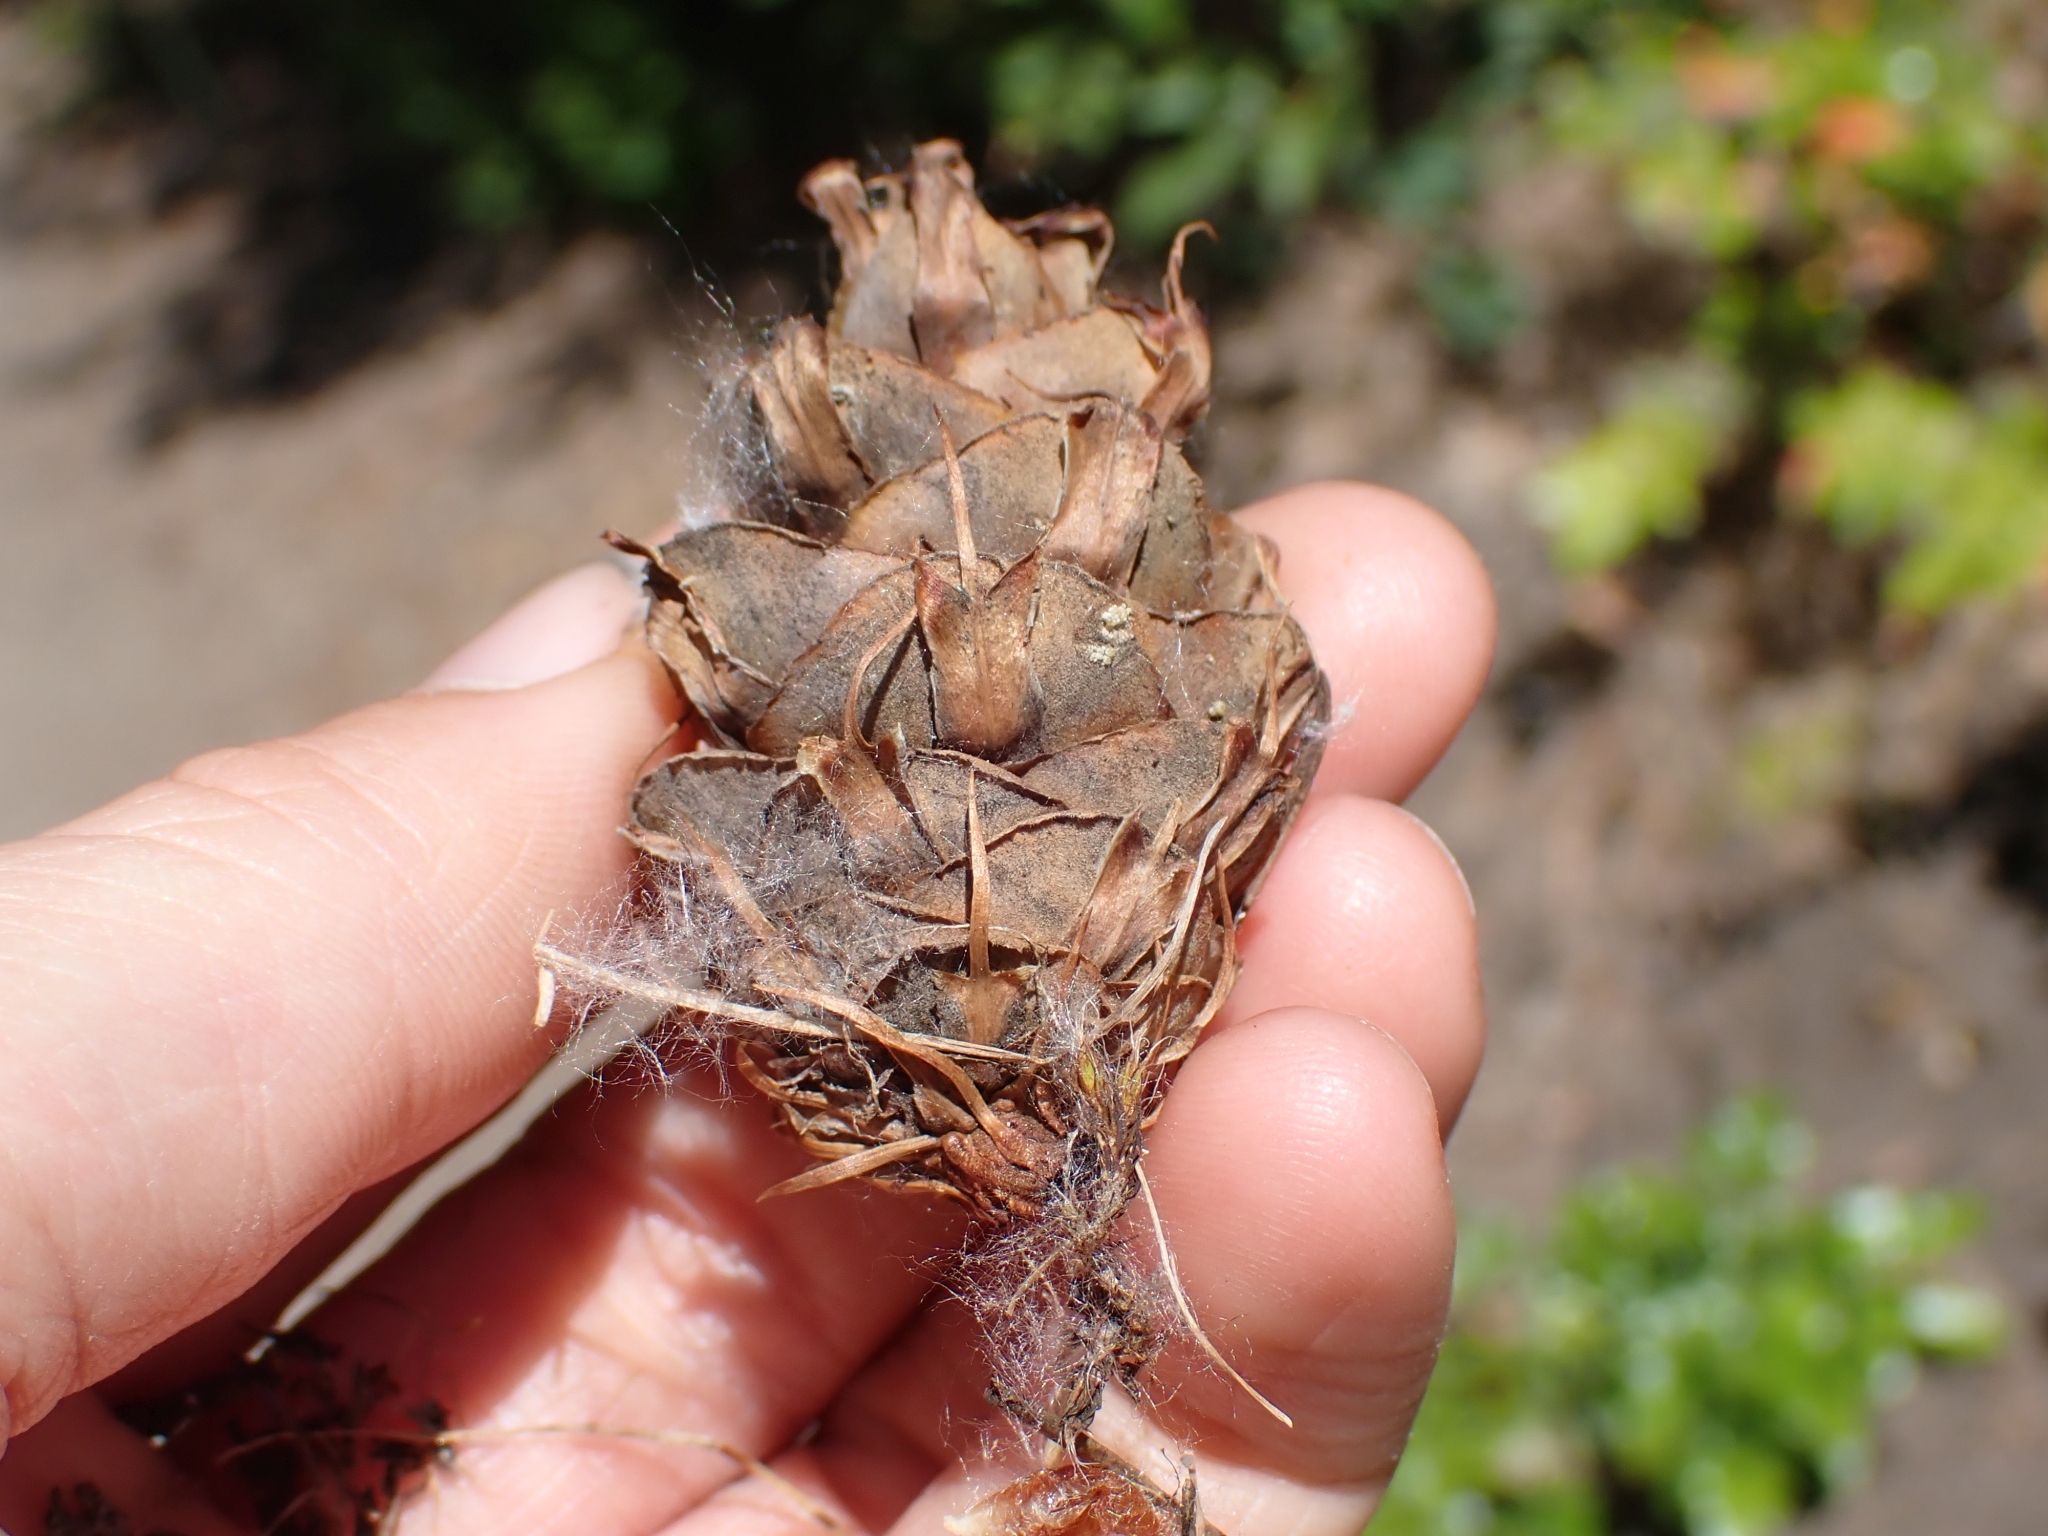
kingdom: Plantae
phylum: Tracheophyta
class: Pinopsida
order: Pinales
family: Pinaceae
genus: Pseudotsuga
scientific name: Pseudotsuga menziesii
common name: Douglas fir
